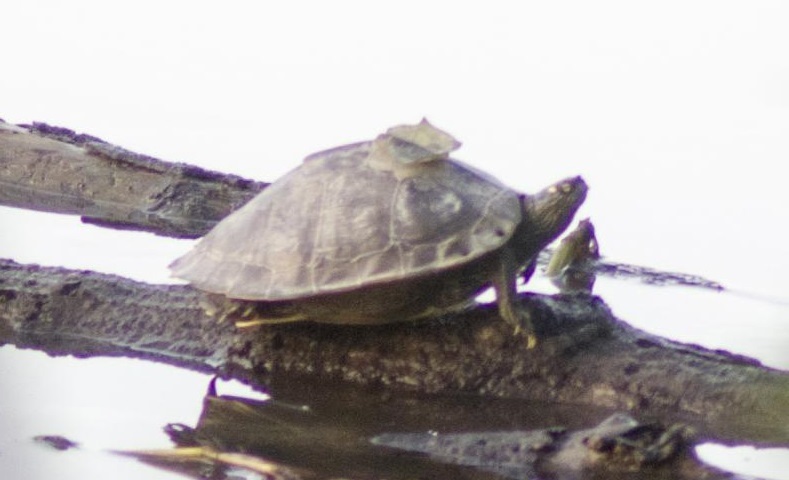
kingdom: Animalia
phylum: Chordata
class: Testudines
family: Emydidae
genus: Graptemys
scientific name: Graptemys sabinensis
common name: Sabine map turtle
